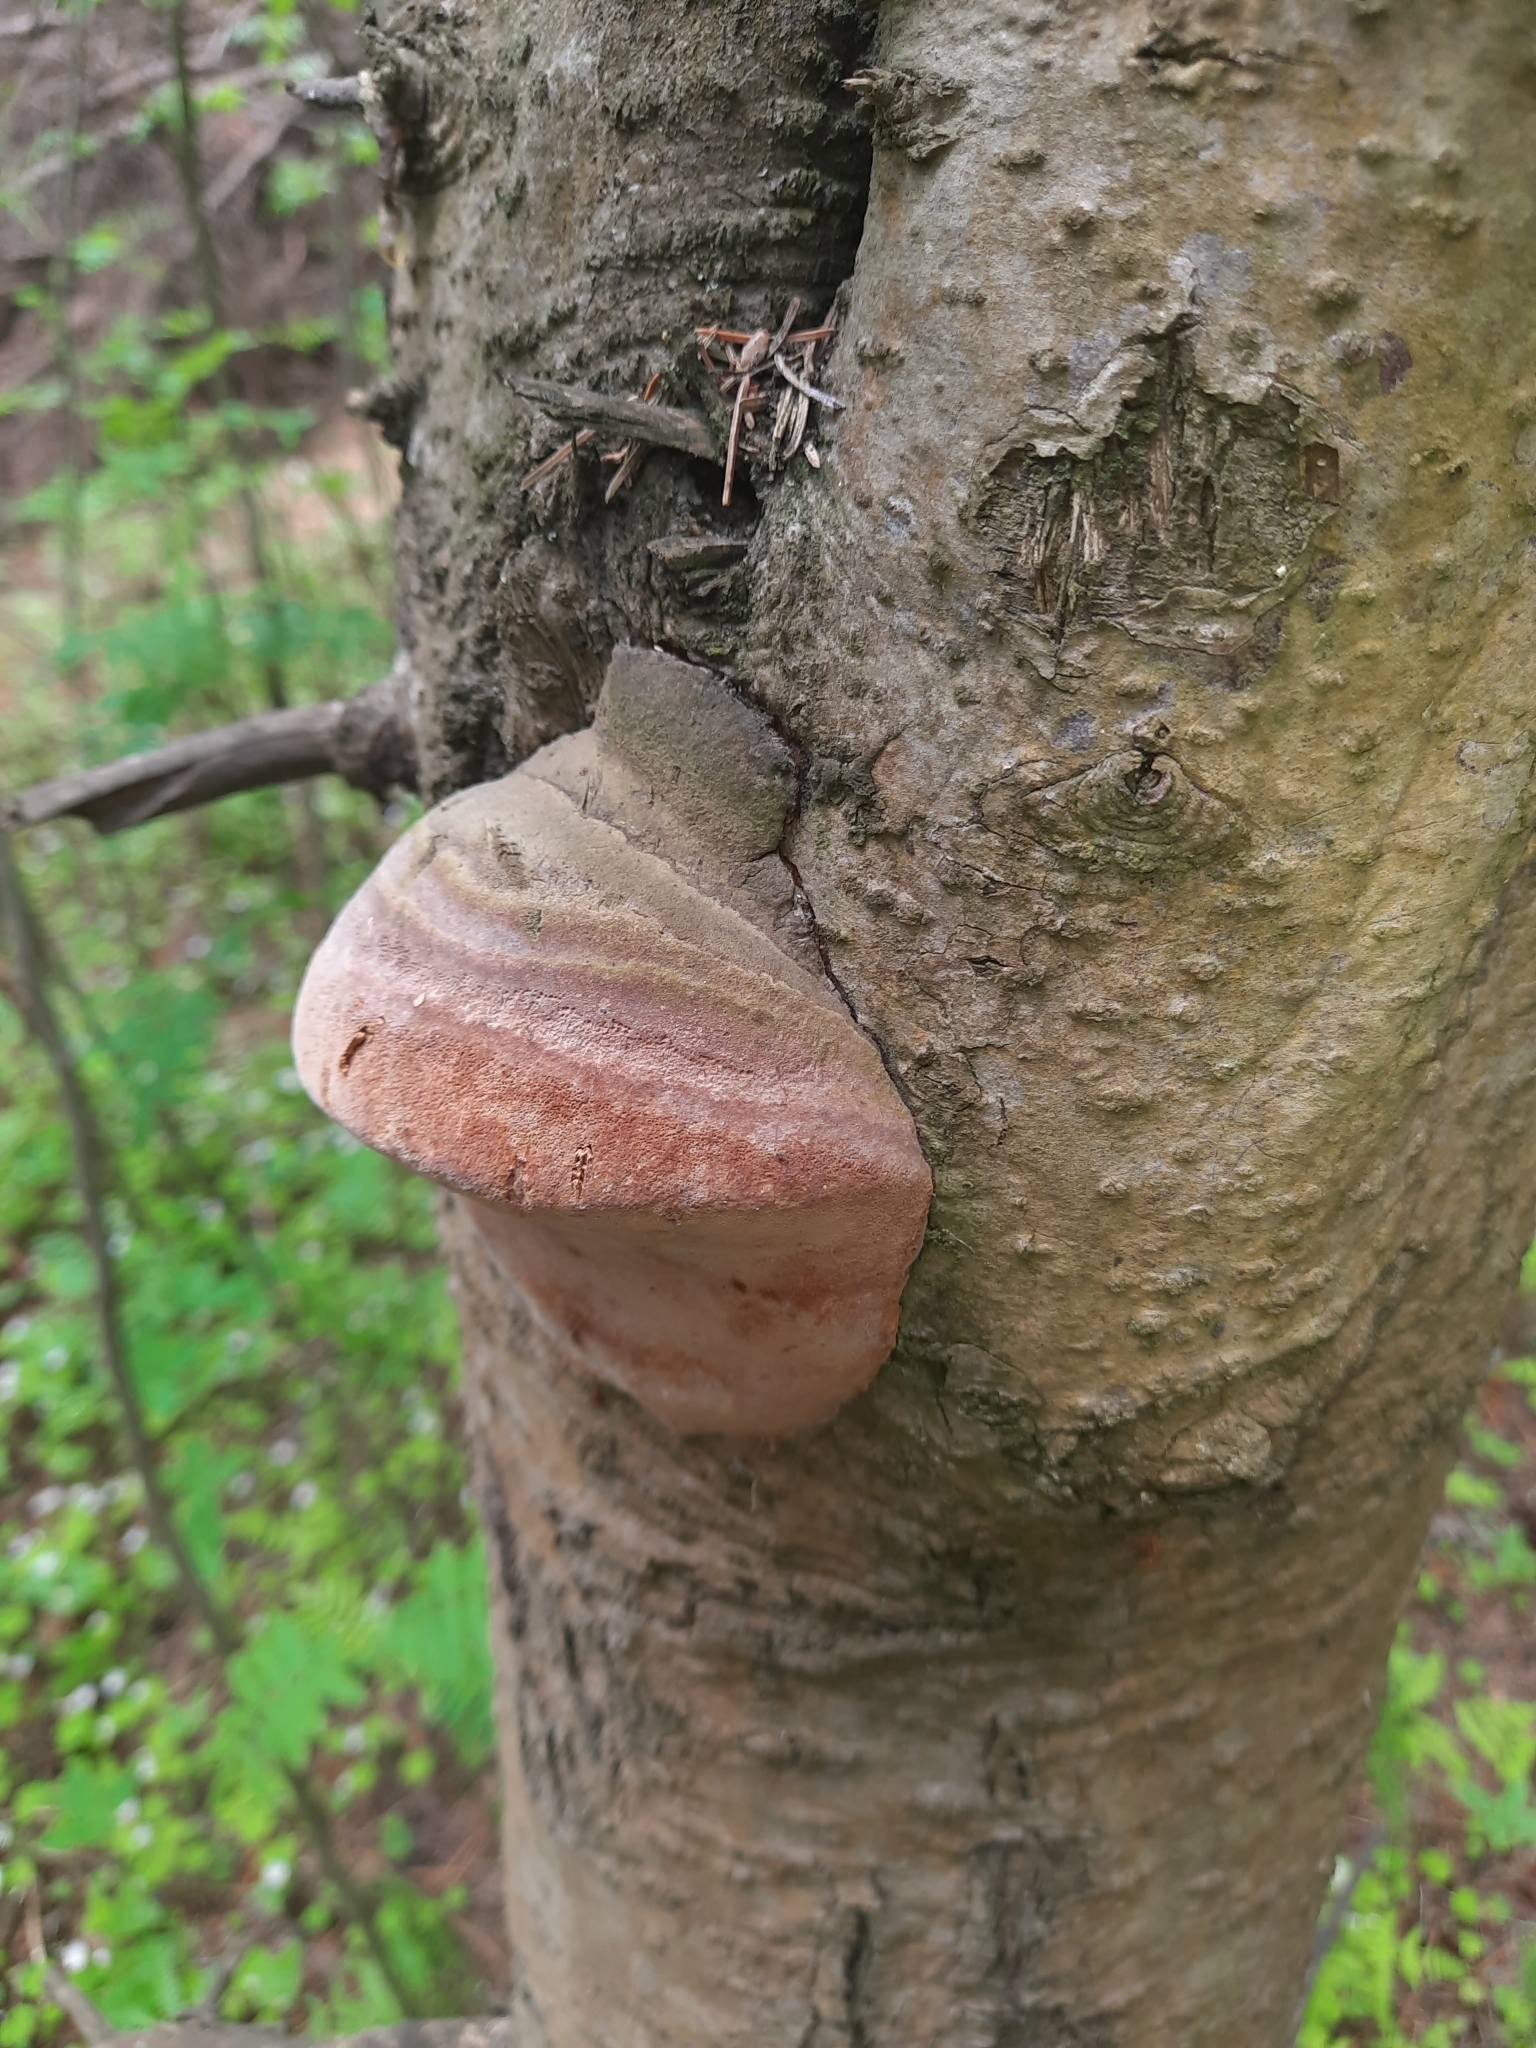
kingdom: Fungi
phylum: Basidiomycota
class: Agaricomycetes
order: Hymenochaetales
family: Hymenochaetaceae
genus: Phellinus
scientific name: Phellinus hartigii
